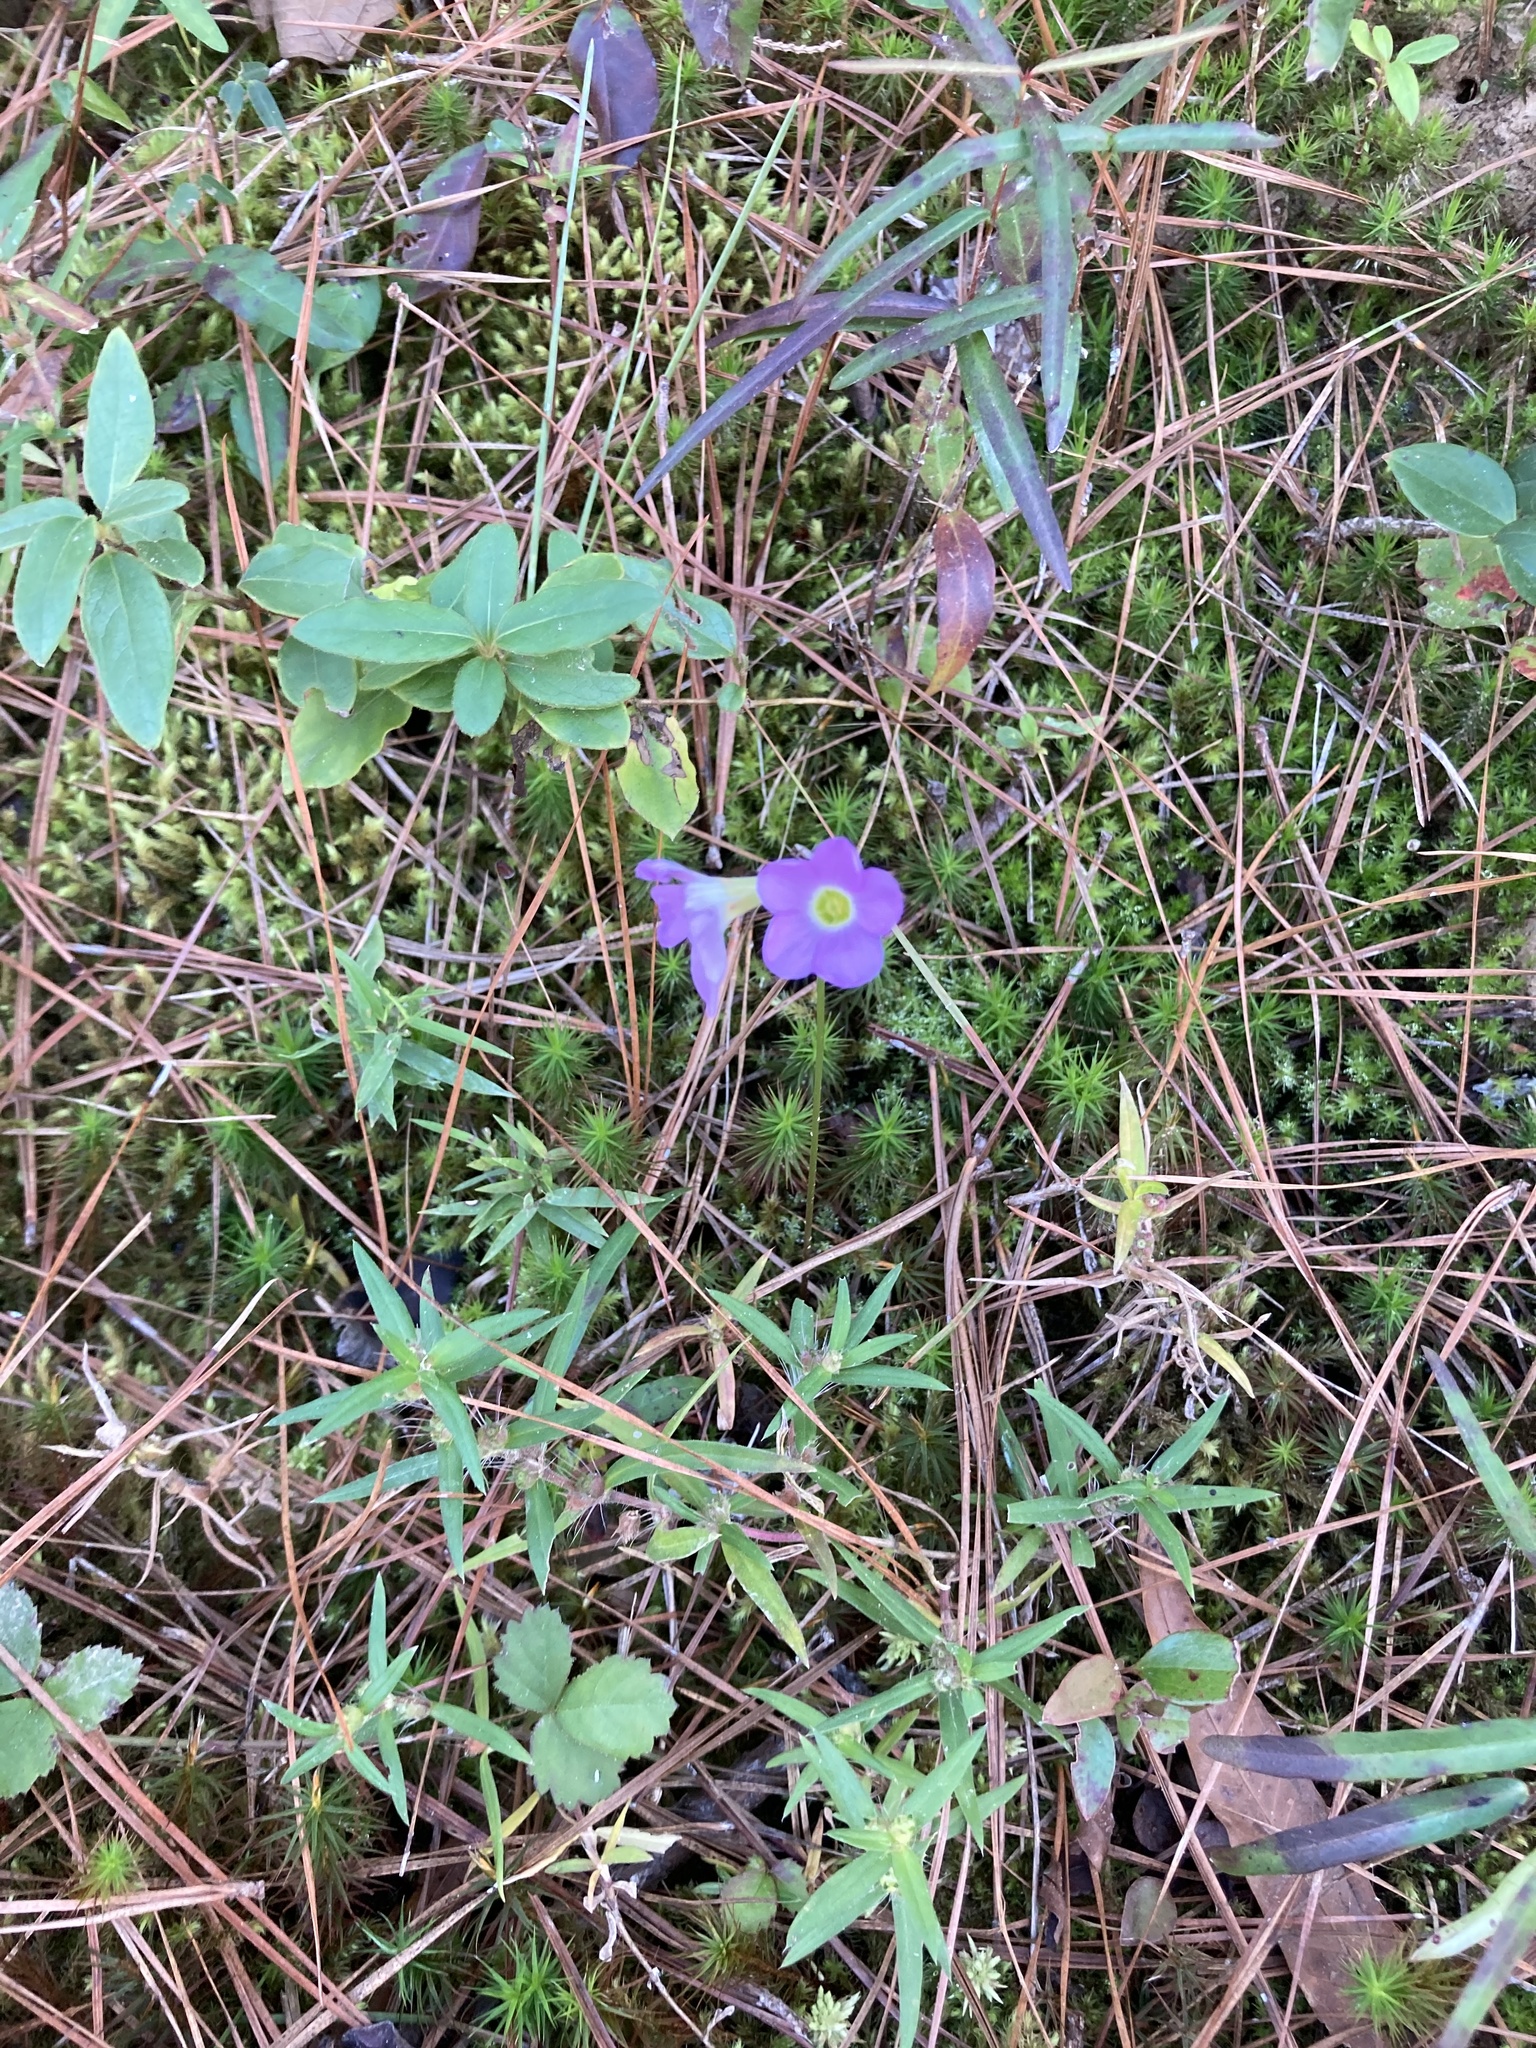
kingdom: Plantae
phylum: Tracheophyta
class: Magnoliopsida
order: Oxalidales
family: Oxalidaceae
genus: Oxalis
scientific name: Oxalis violacea
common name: Violet wood-sorrel
